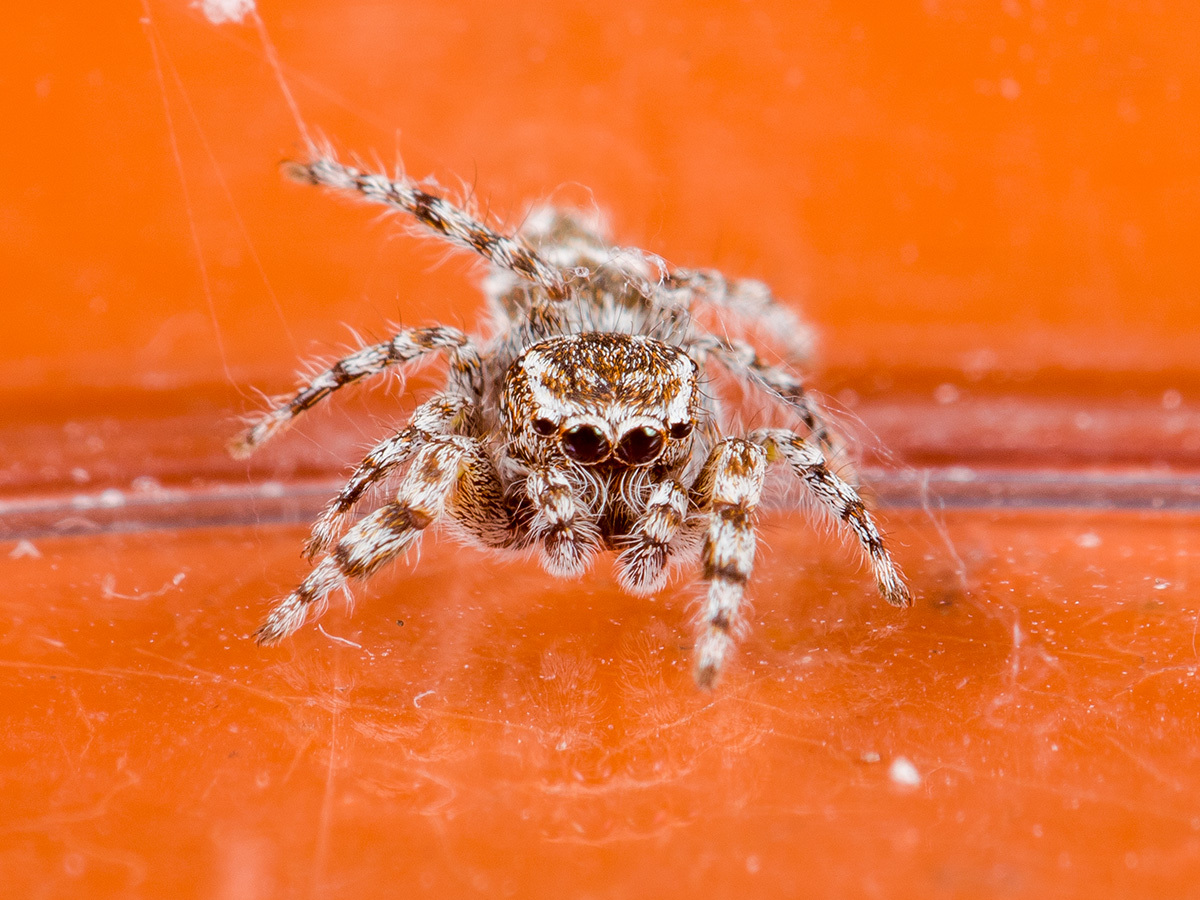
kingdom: Animalia
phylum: Arthropoda
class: Arachnida
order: Araneae
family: Salticidae
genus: Pseudomogrus
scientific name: Pseudomogrus albocinctus
